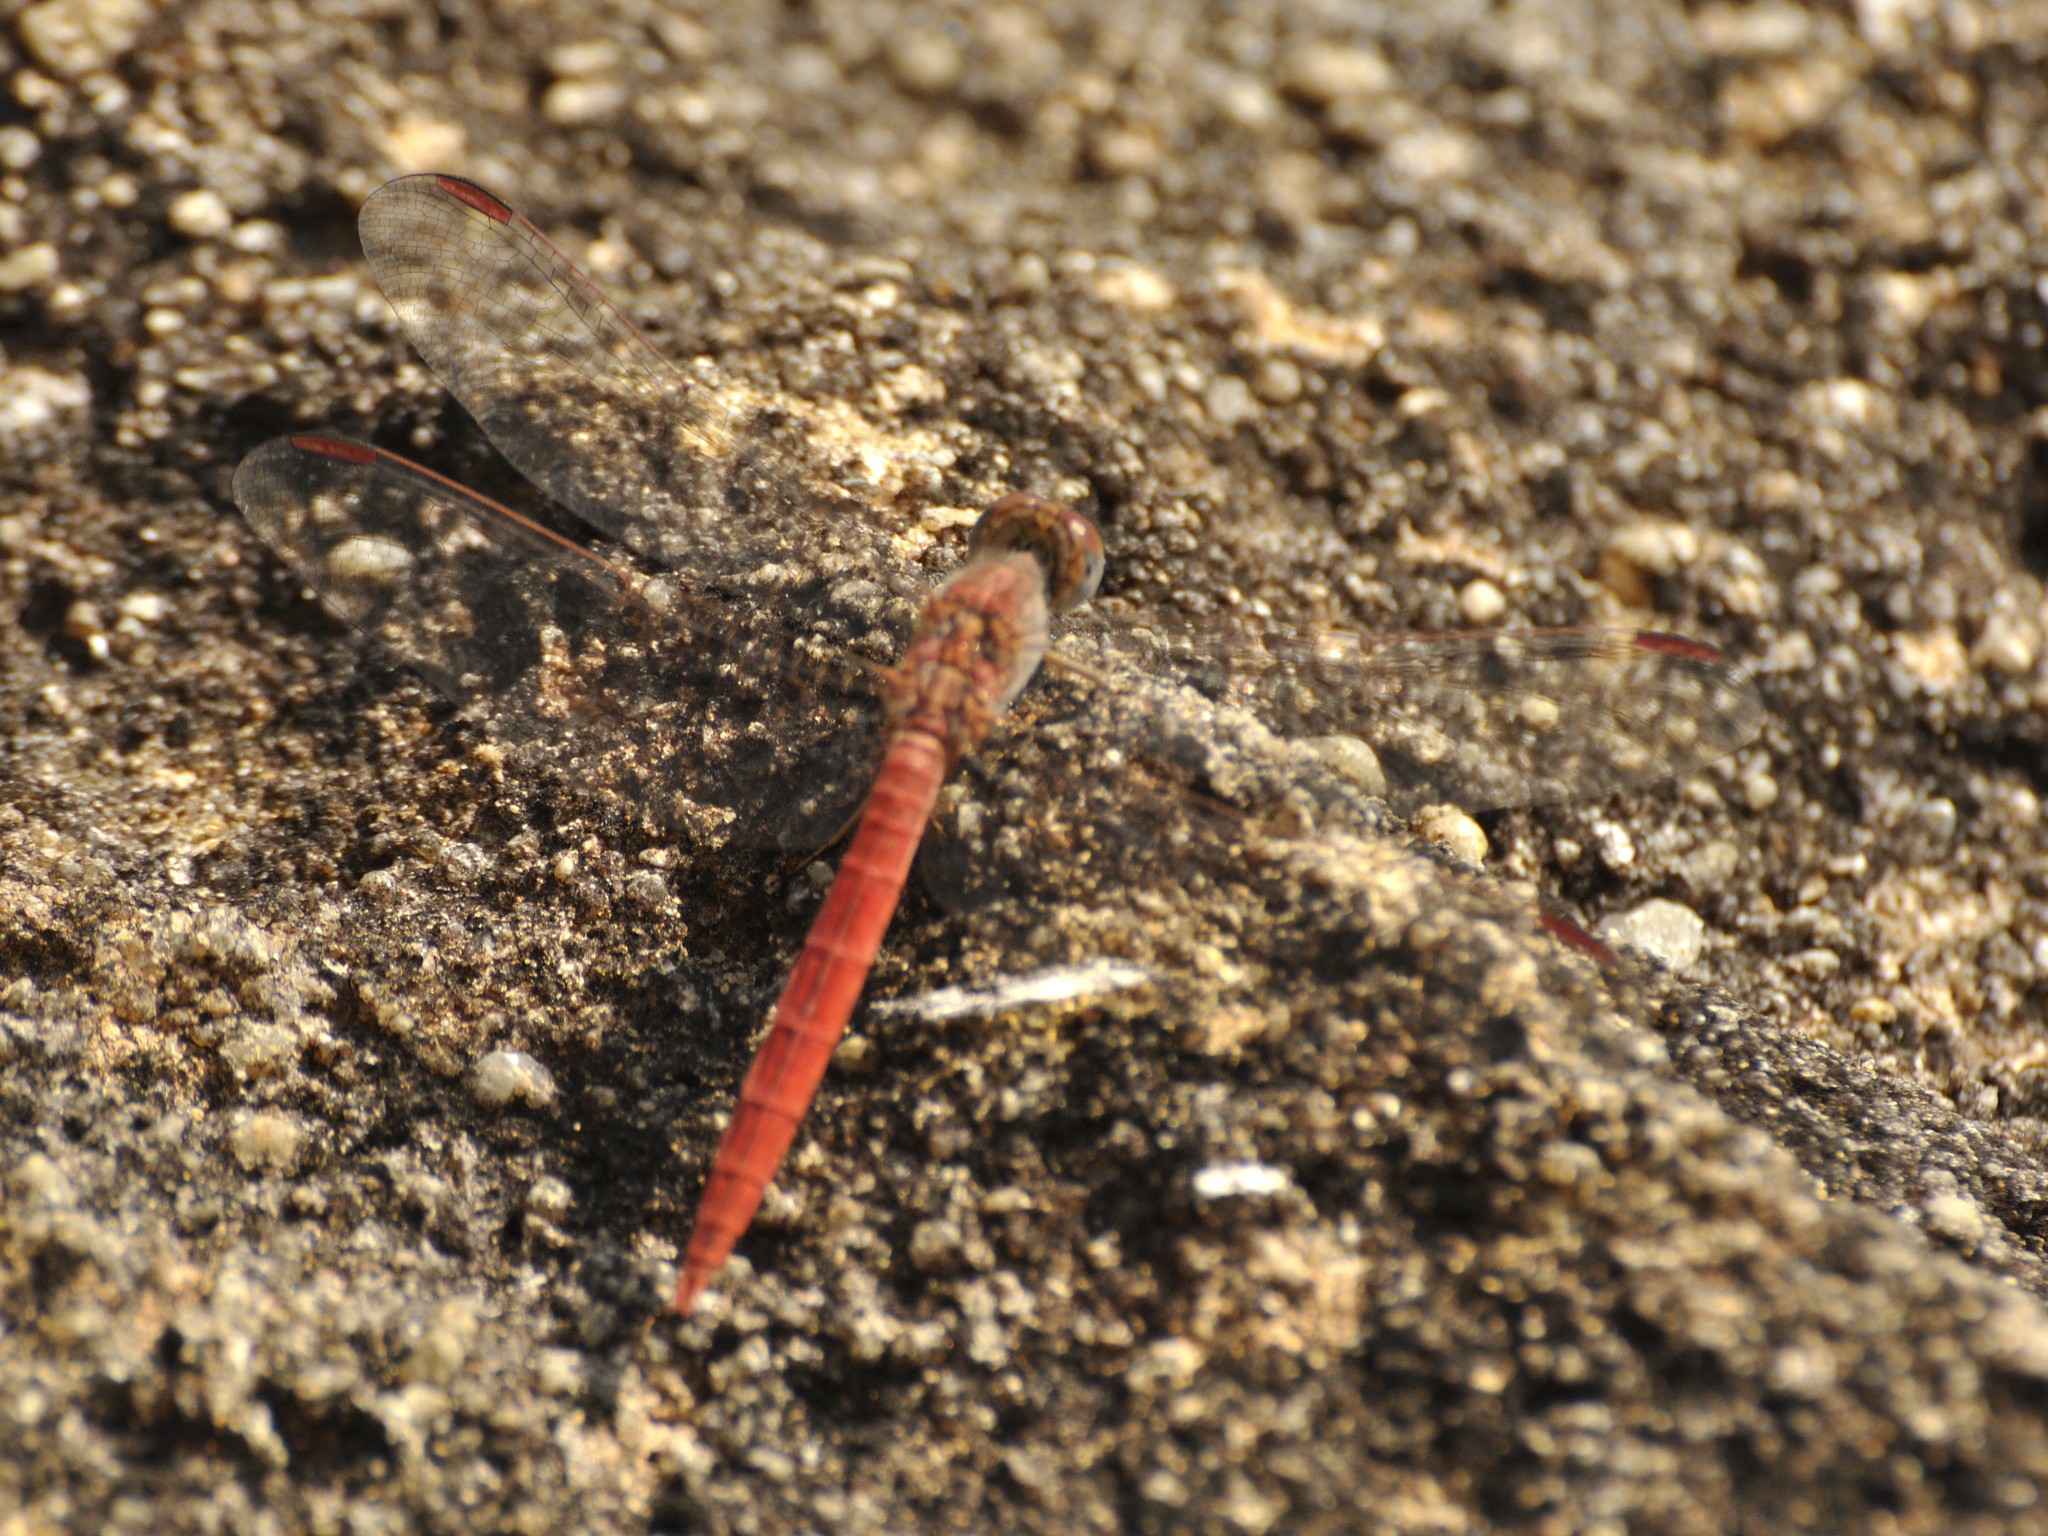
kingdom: Animalia
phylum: Arthropoda
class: Insecta
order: Odonata
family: Libellulidae
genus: Crocothemis
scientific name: Crocothemis divisa
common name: Divisa scarlet
